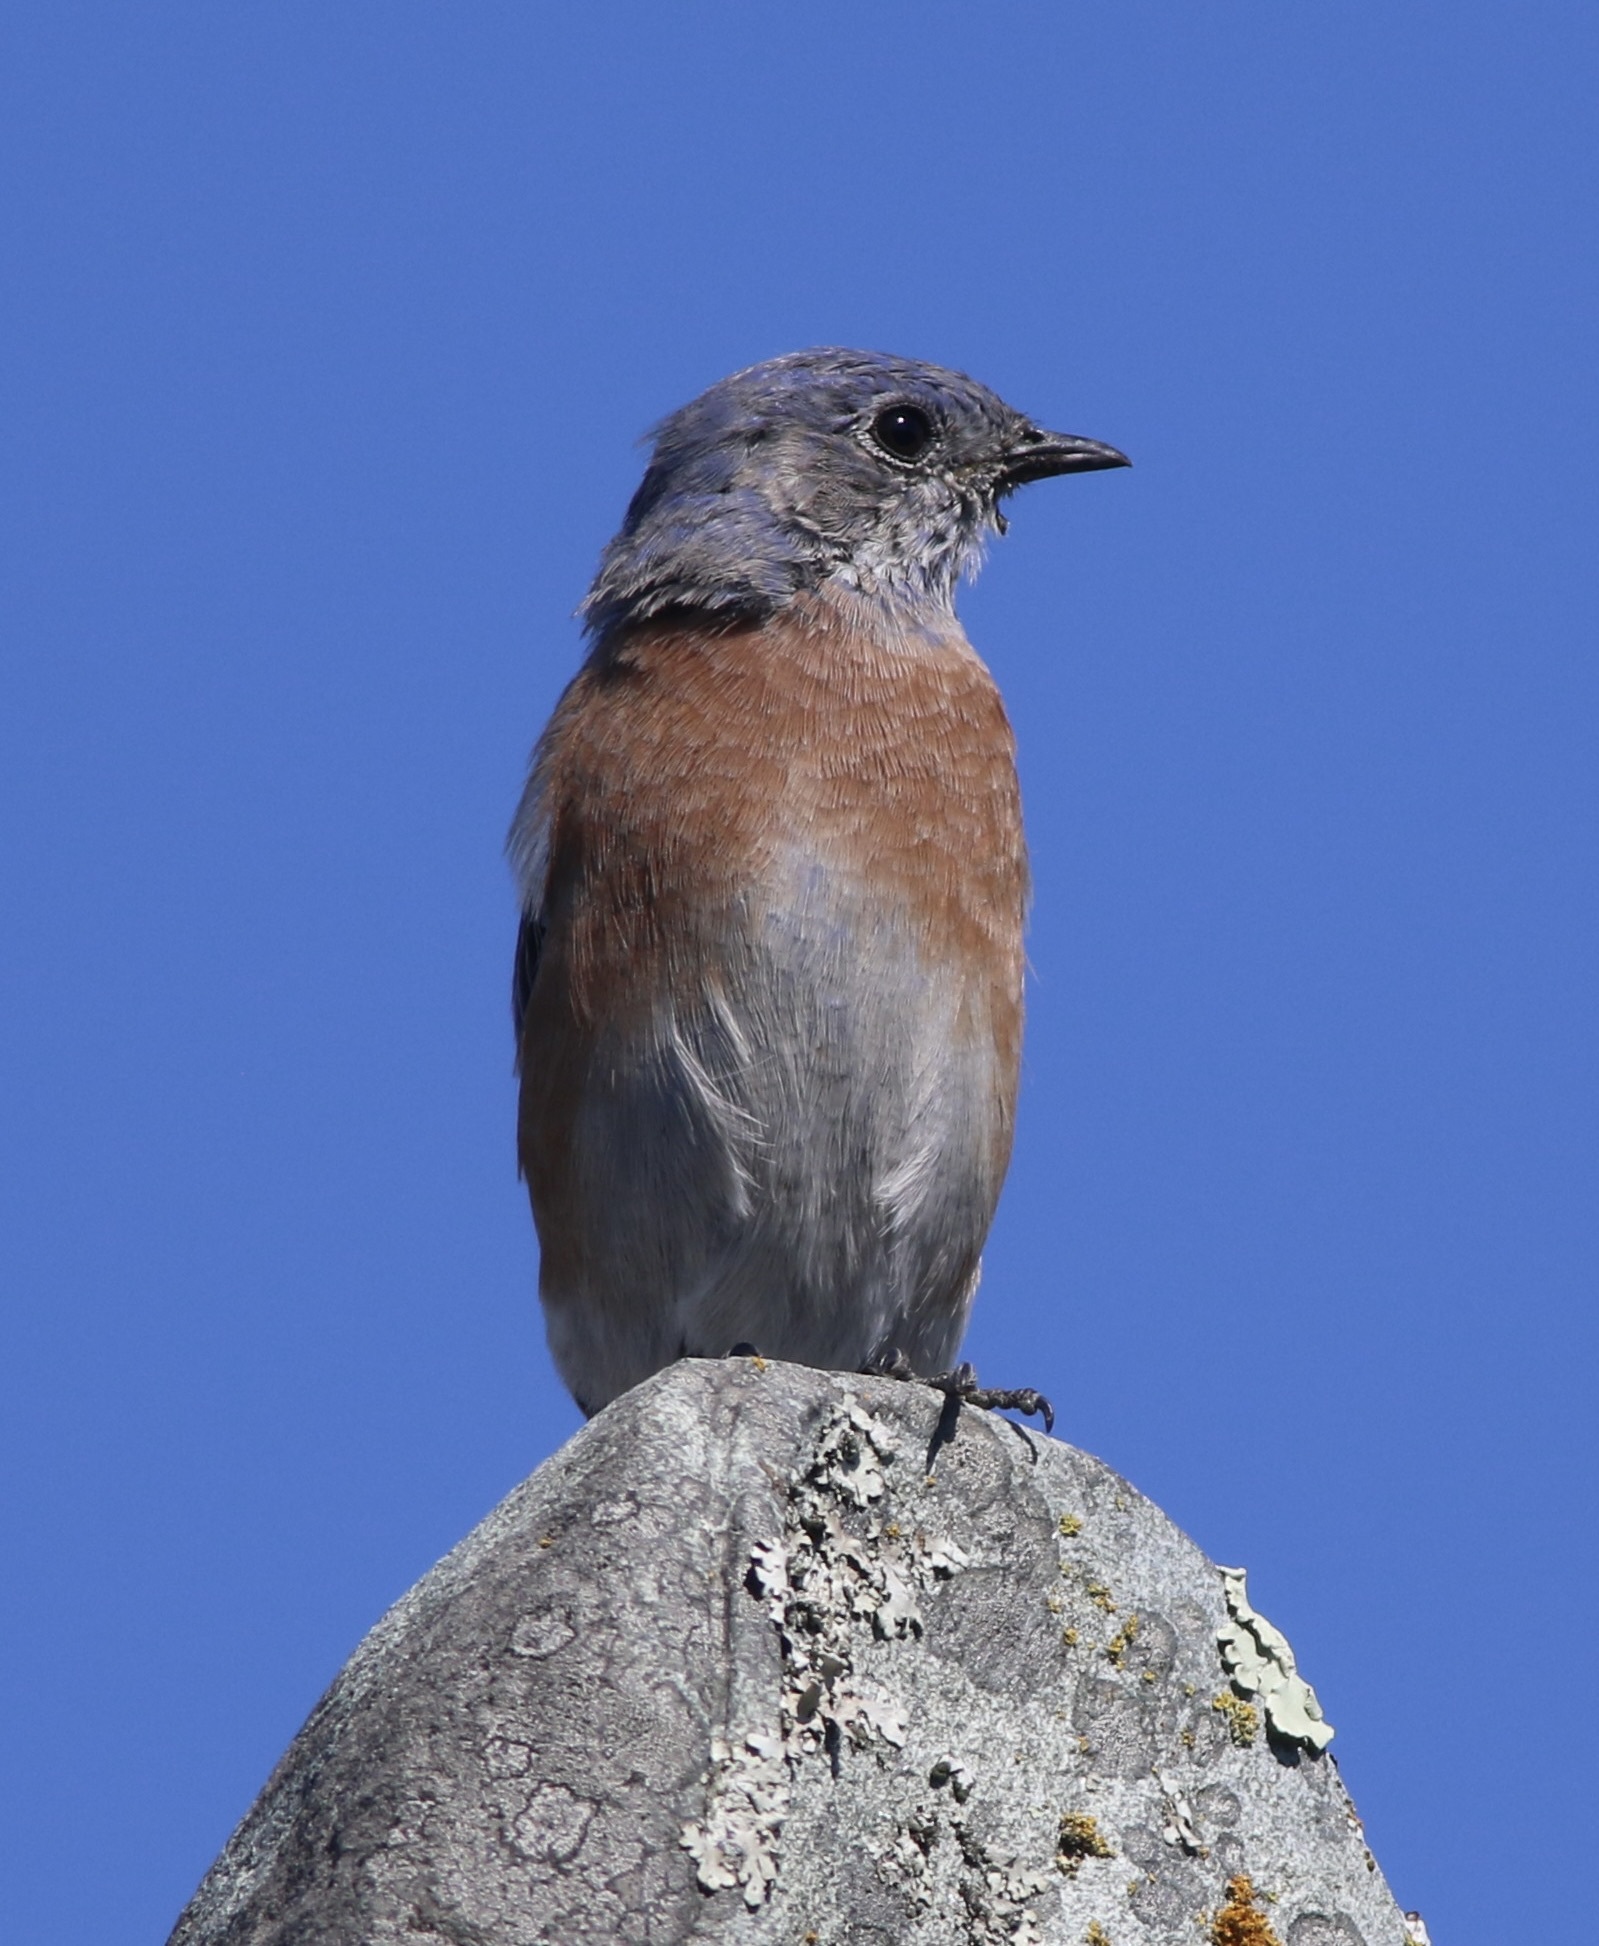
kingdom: Animalia
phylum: Chordata
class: Aves
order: Passeriformes
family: Turdidae
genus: Sialia
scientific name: Sialia mexicana
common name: Western bluebird
